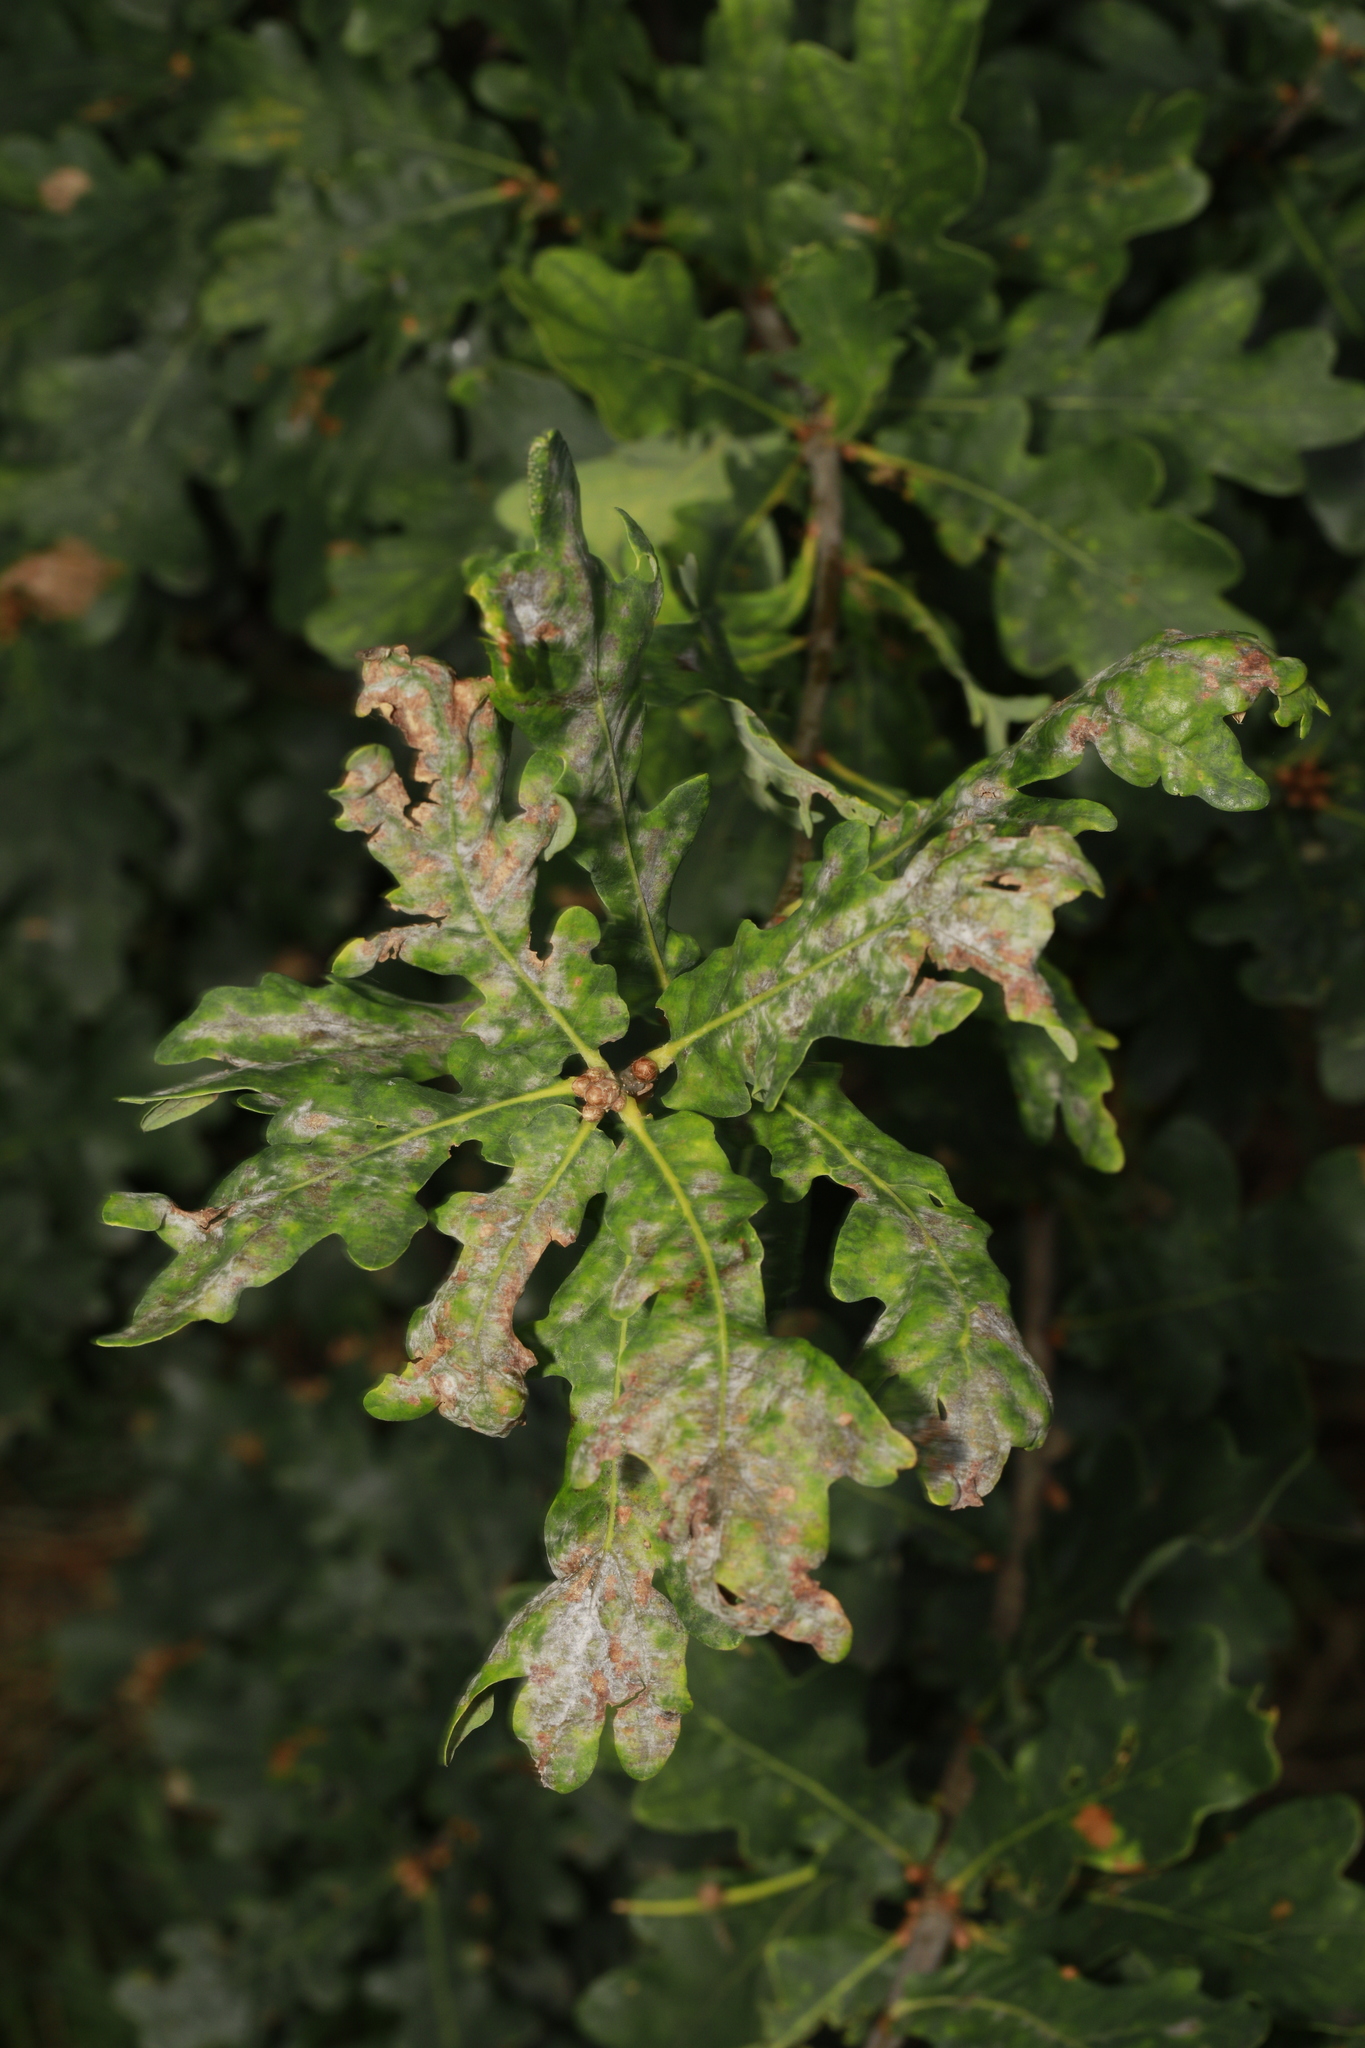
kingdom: Plantae
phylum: Tracheophyta
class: Magnoliopsida
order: Fagales
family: Fagaceae
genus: Quercus
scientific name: Quercus robur
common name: Pedunculate oak
